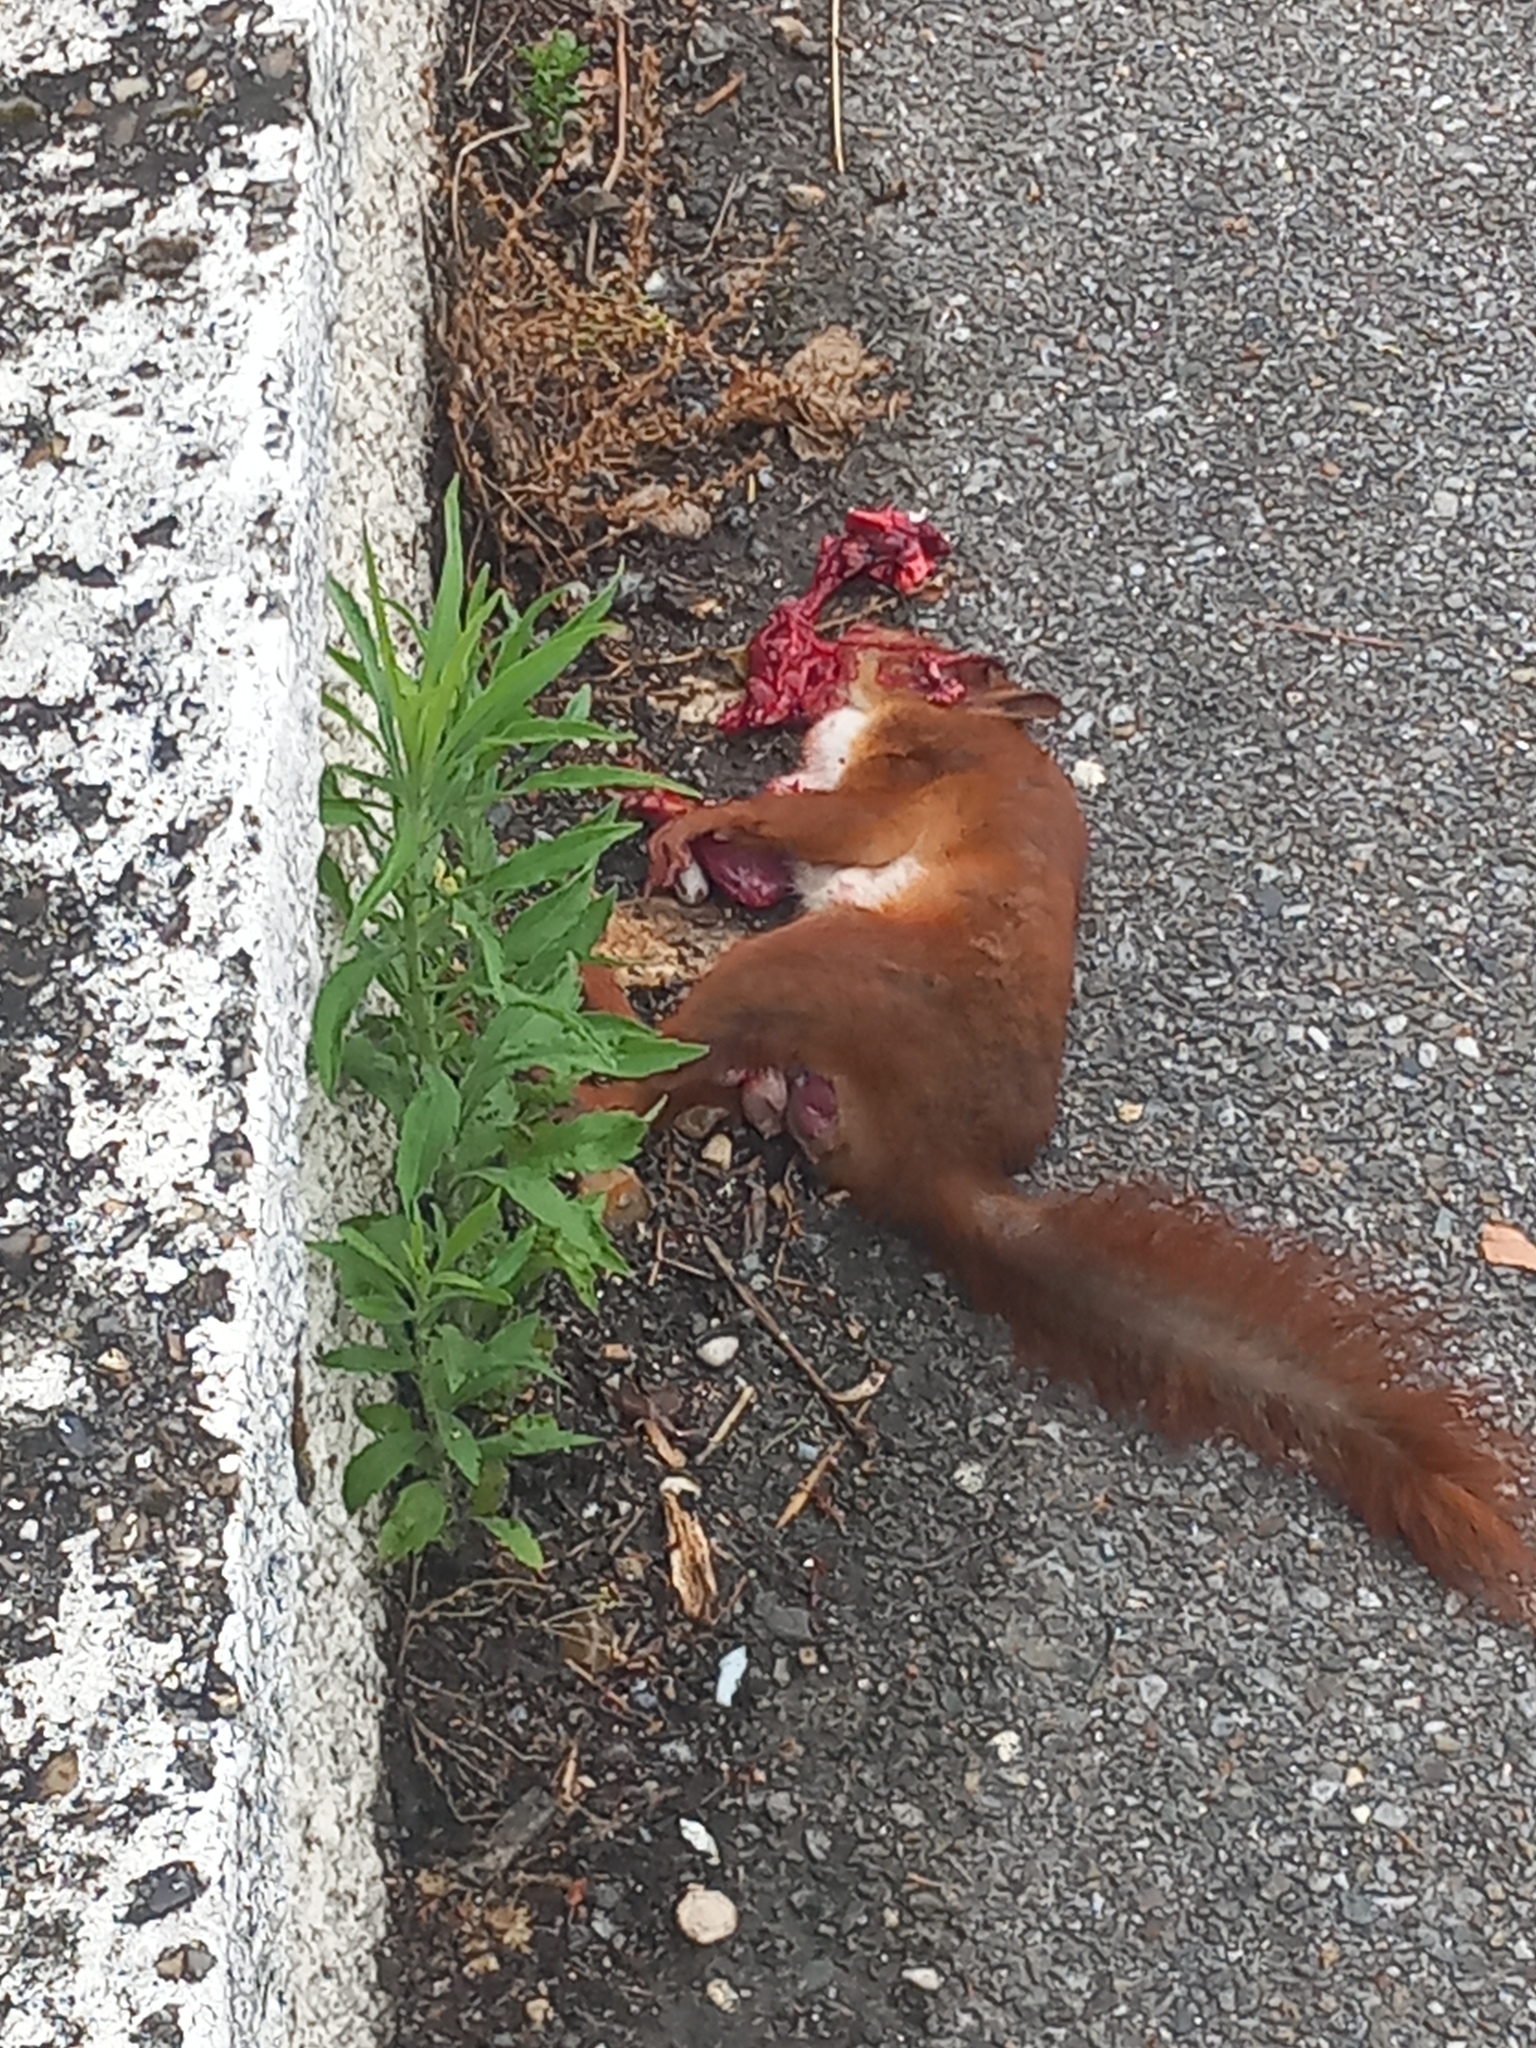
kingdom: Animalia
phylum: Chordata
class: Mammalia
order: Rodentia
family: Sciuridae
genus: Sciurus
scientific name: Sciurus vulgaris
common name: Eurasian red squirrel
